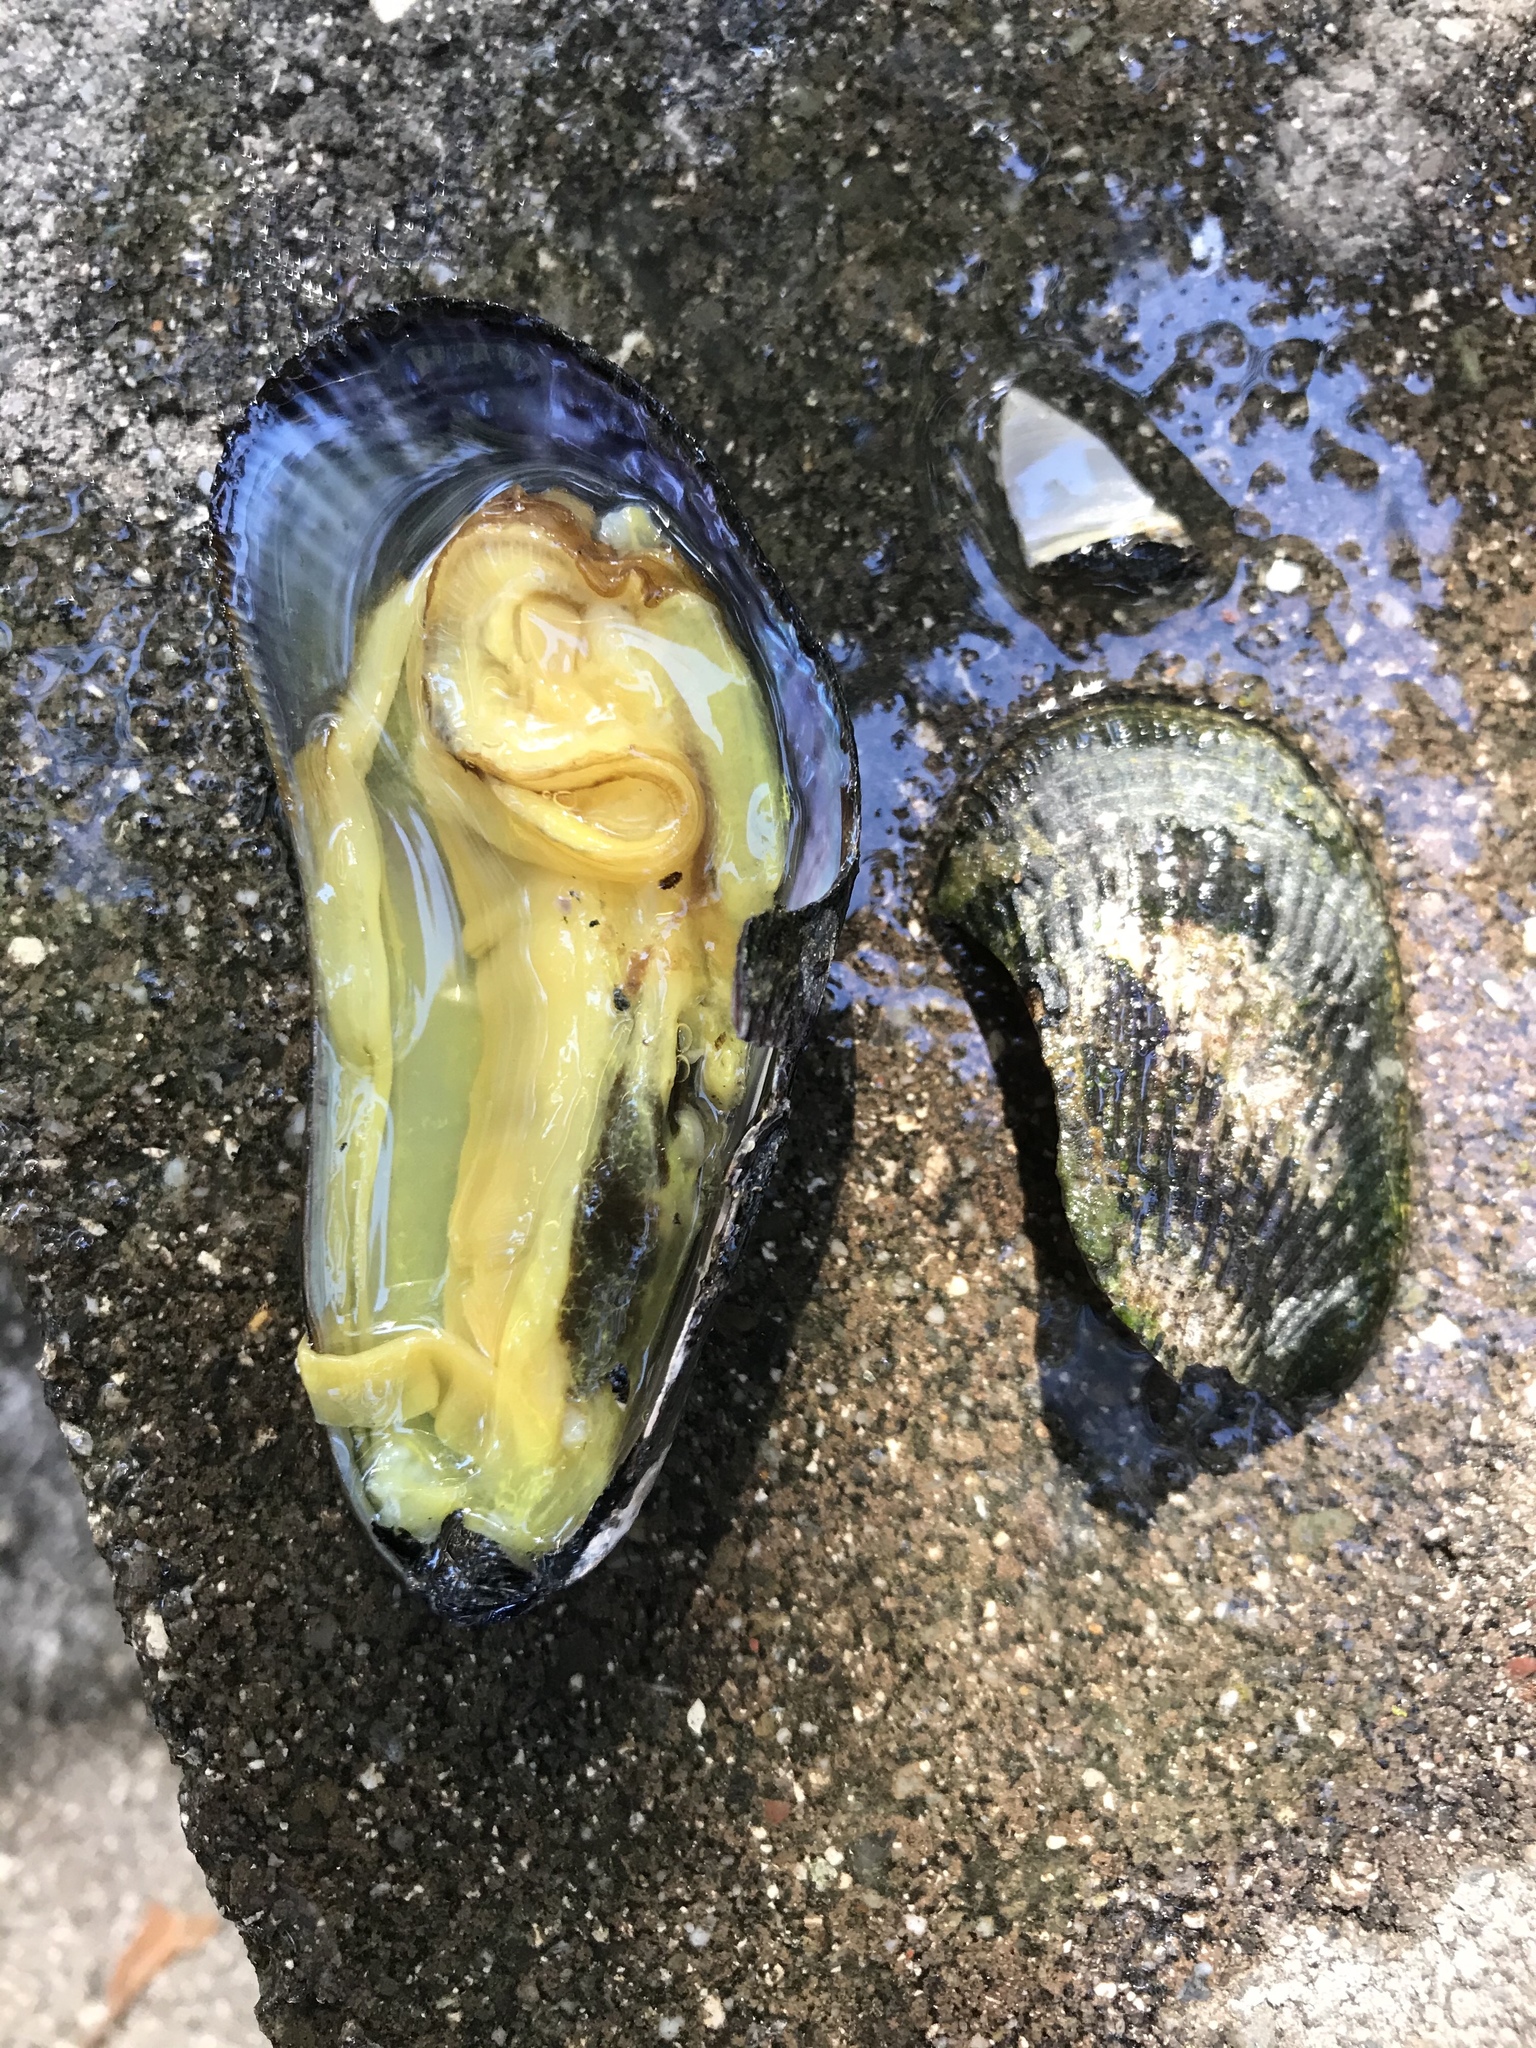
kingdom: Animalia
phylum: Mollusca
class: Bivalvia
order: Mytilida
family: Mytilidae
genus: Geukensia
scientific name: Geukensia demissa
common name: Ribbed mussel
